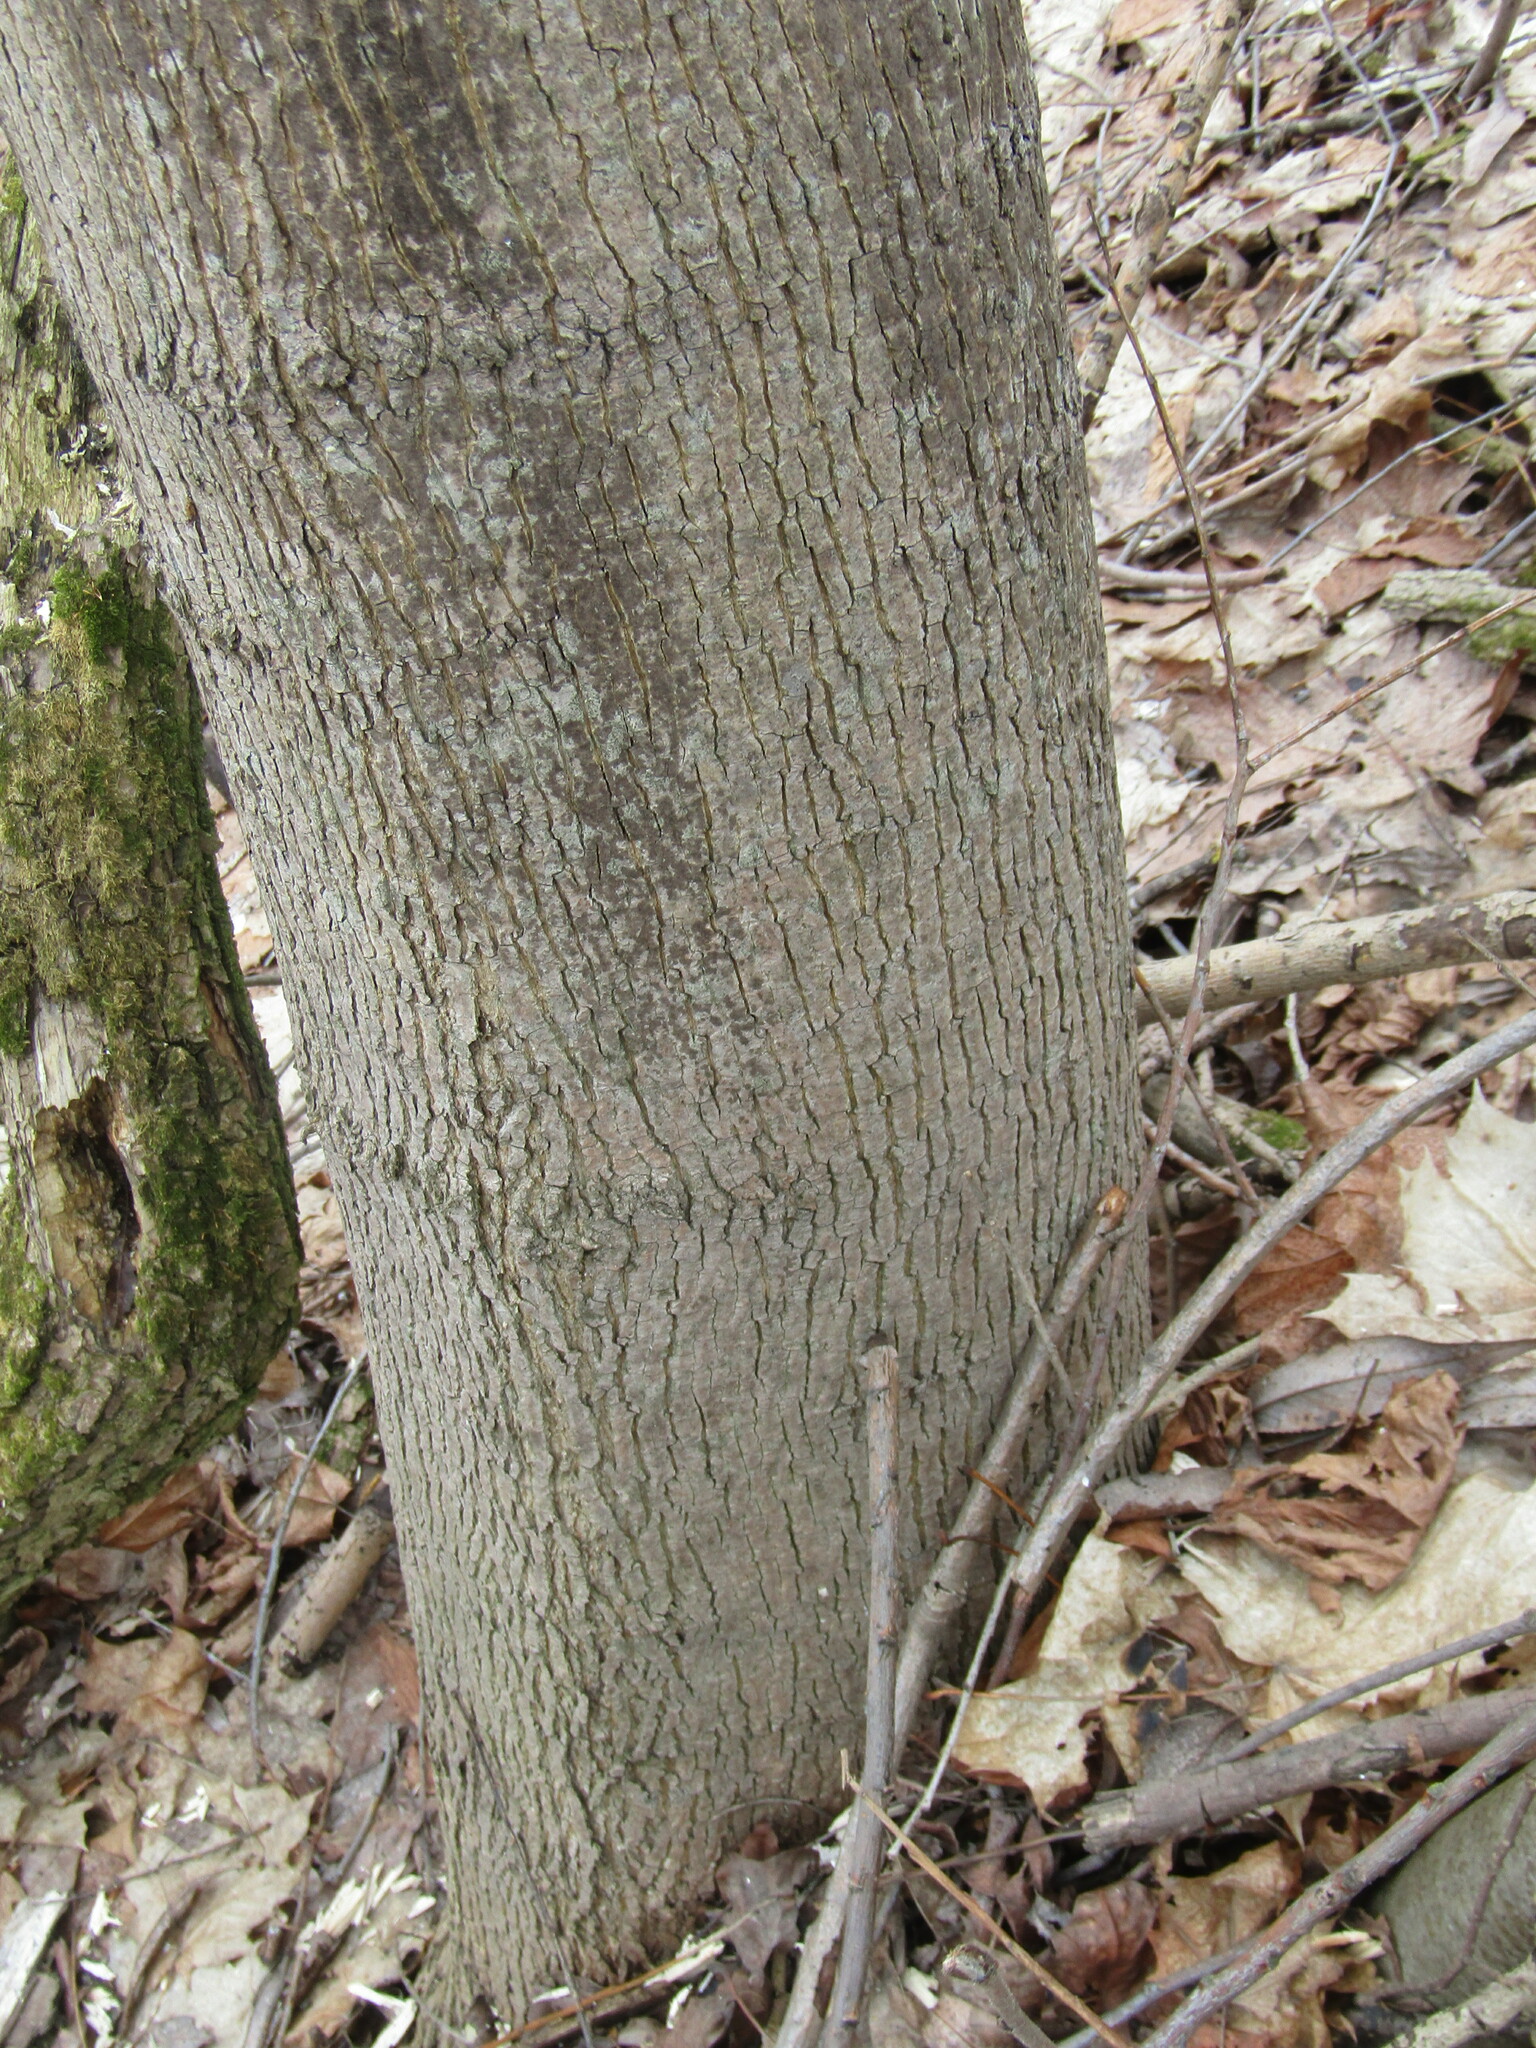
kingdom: Plantae
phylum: Tracheophyta
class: Magnoliopsida
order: Sapindales
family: Sapindaceae
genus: Acer
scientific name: Acer platanoides
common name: Norway maple
